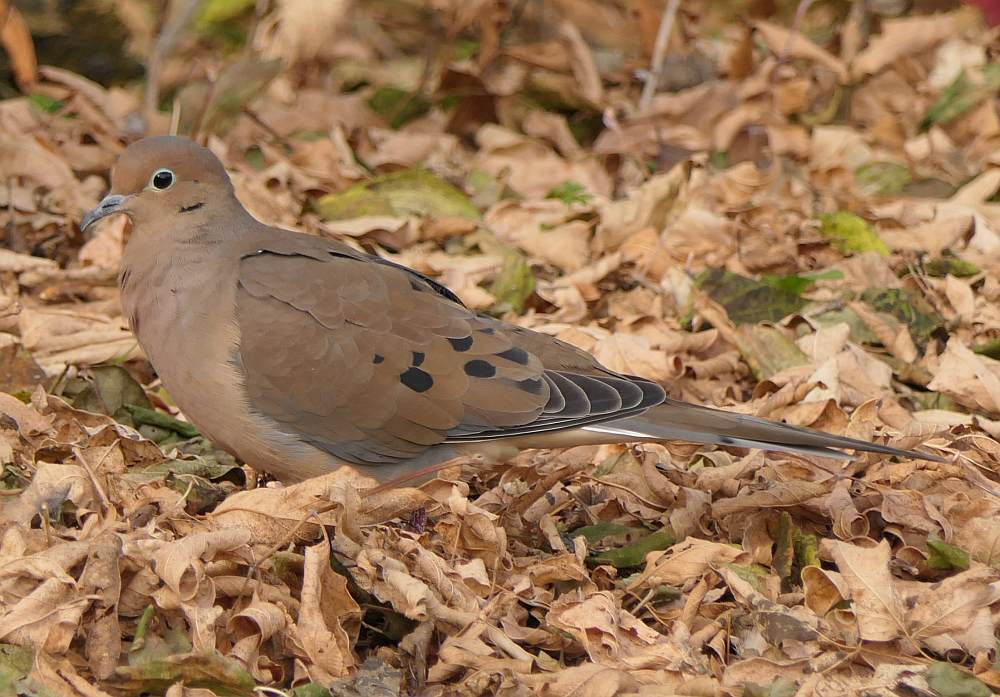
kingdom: Animalia
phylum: Chordata
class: Aves
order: Columbiformes
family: Columbidae
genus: Zenaida
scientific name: Zenaida macroura
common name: Mourning dove
